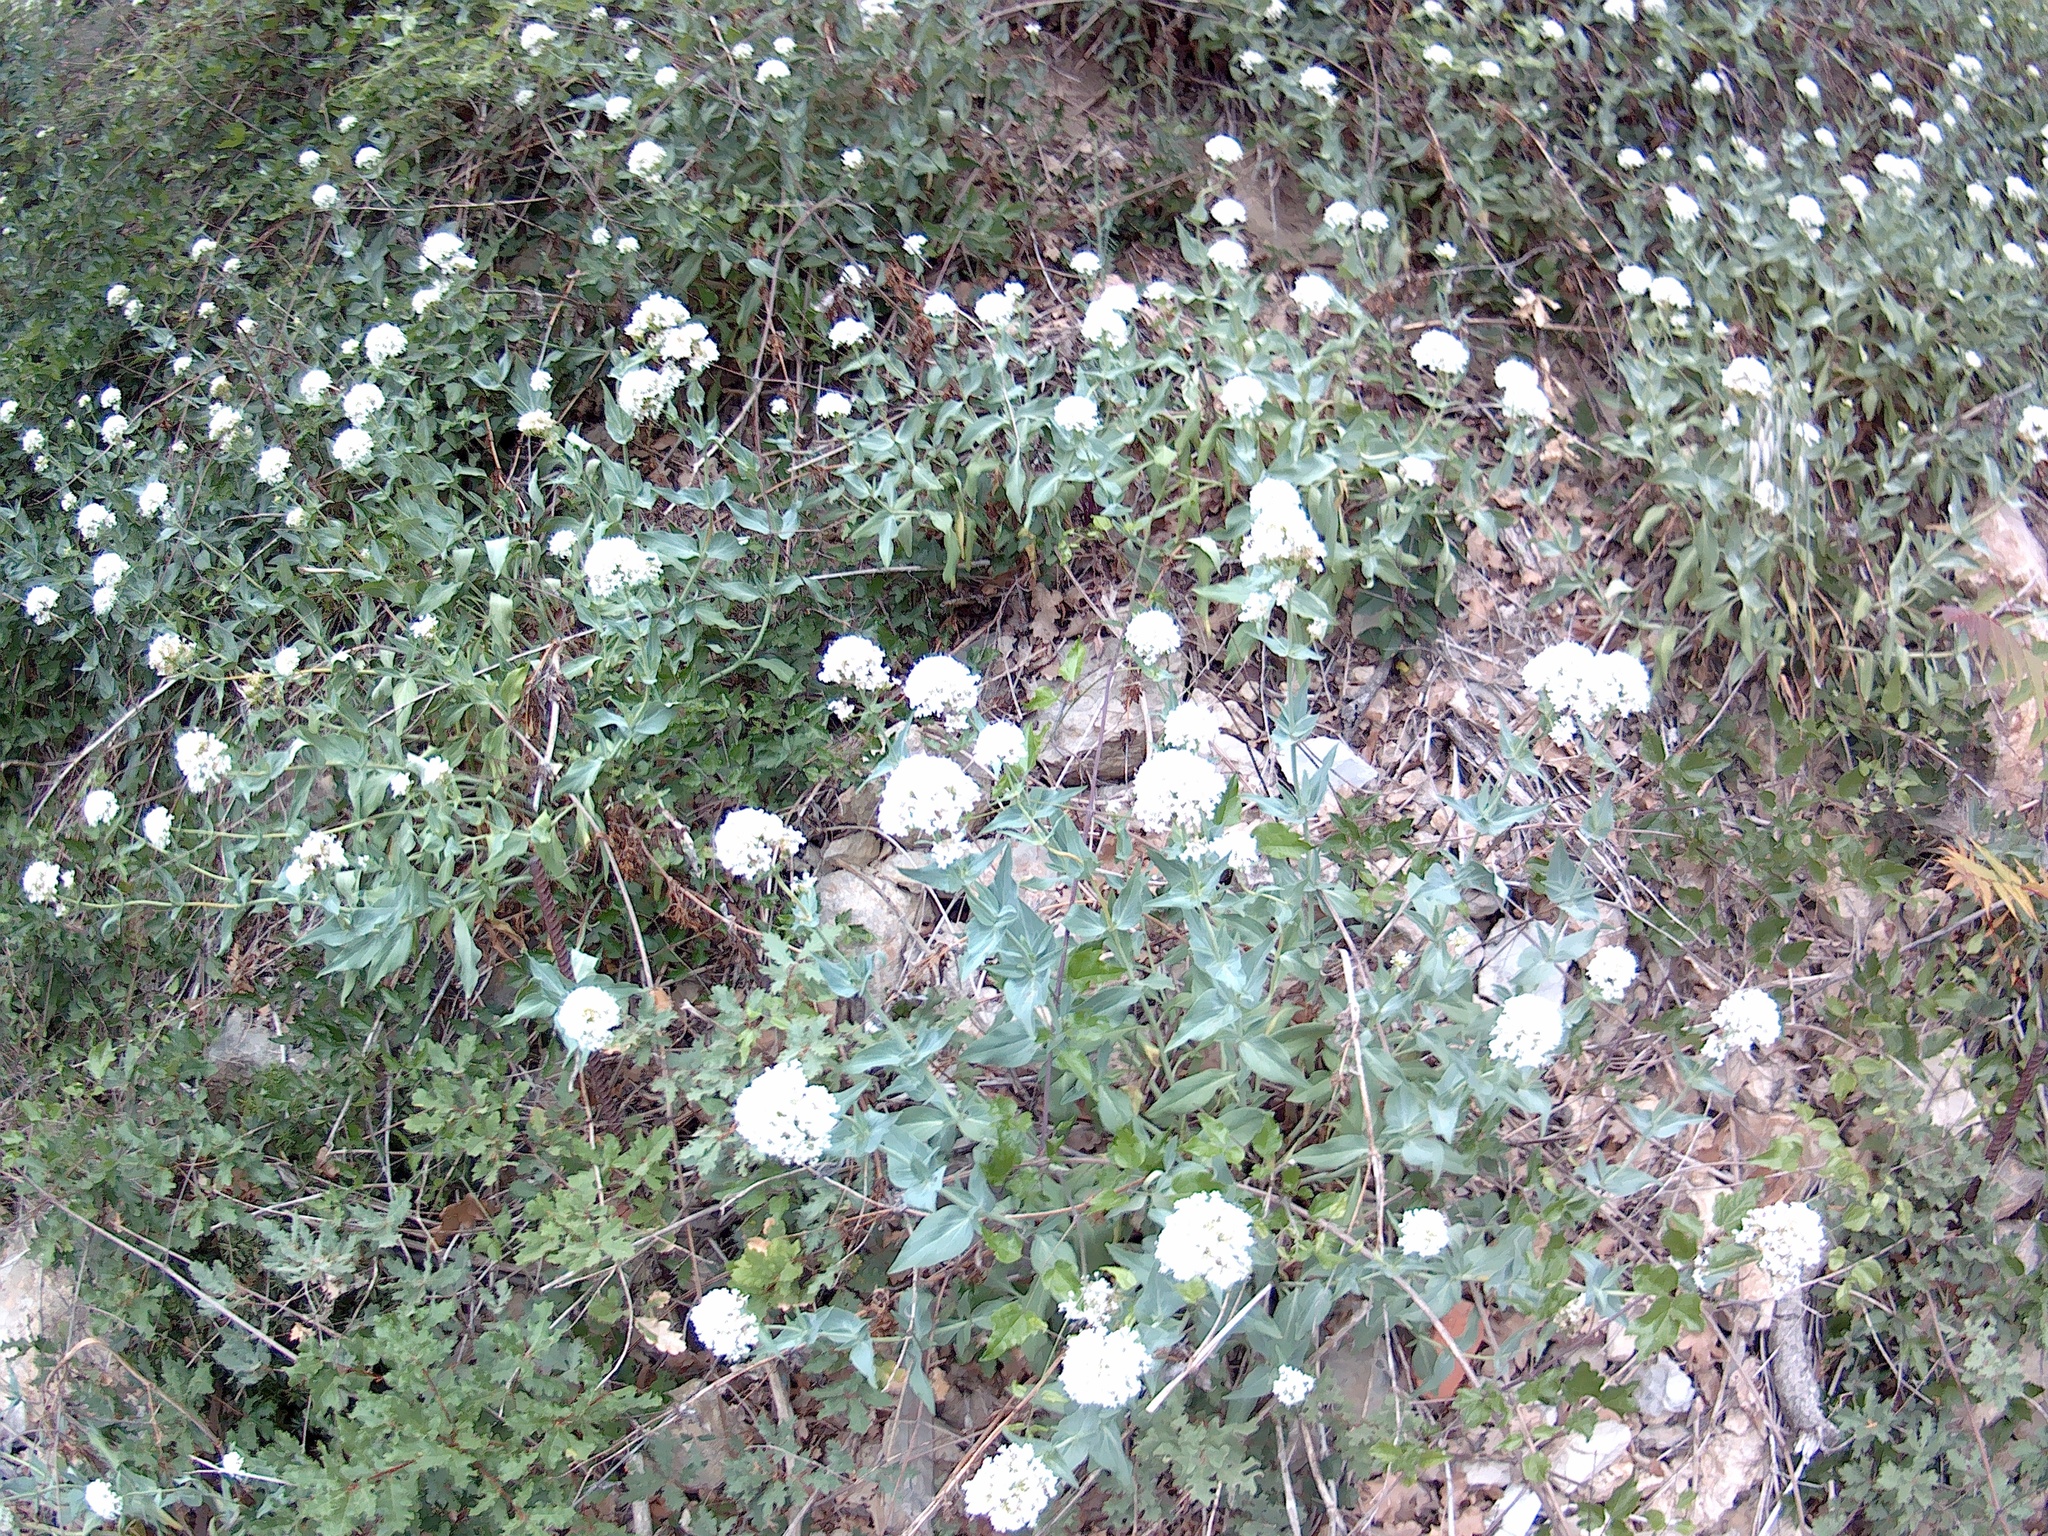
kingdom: Plantae
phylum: Tracheophyta
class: Magnoliopsida
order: Dipsacales
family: Caprifoliaceae
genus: Centranthus
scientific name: Centranthus ruber
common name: Red valerian
